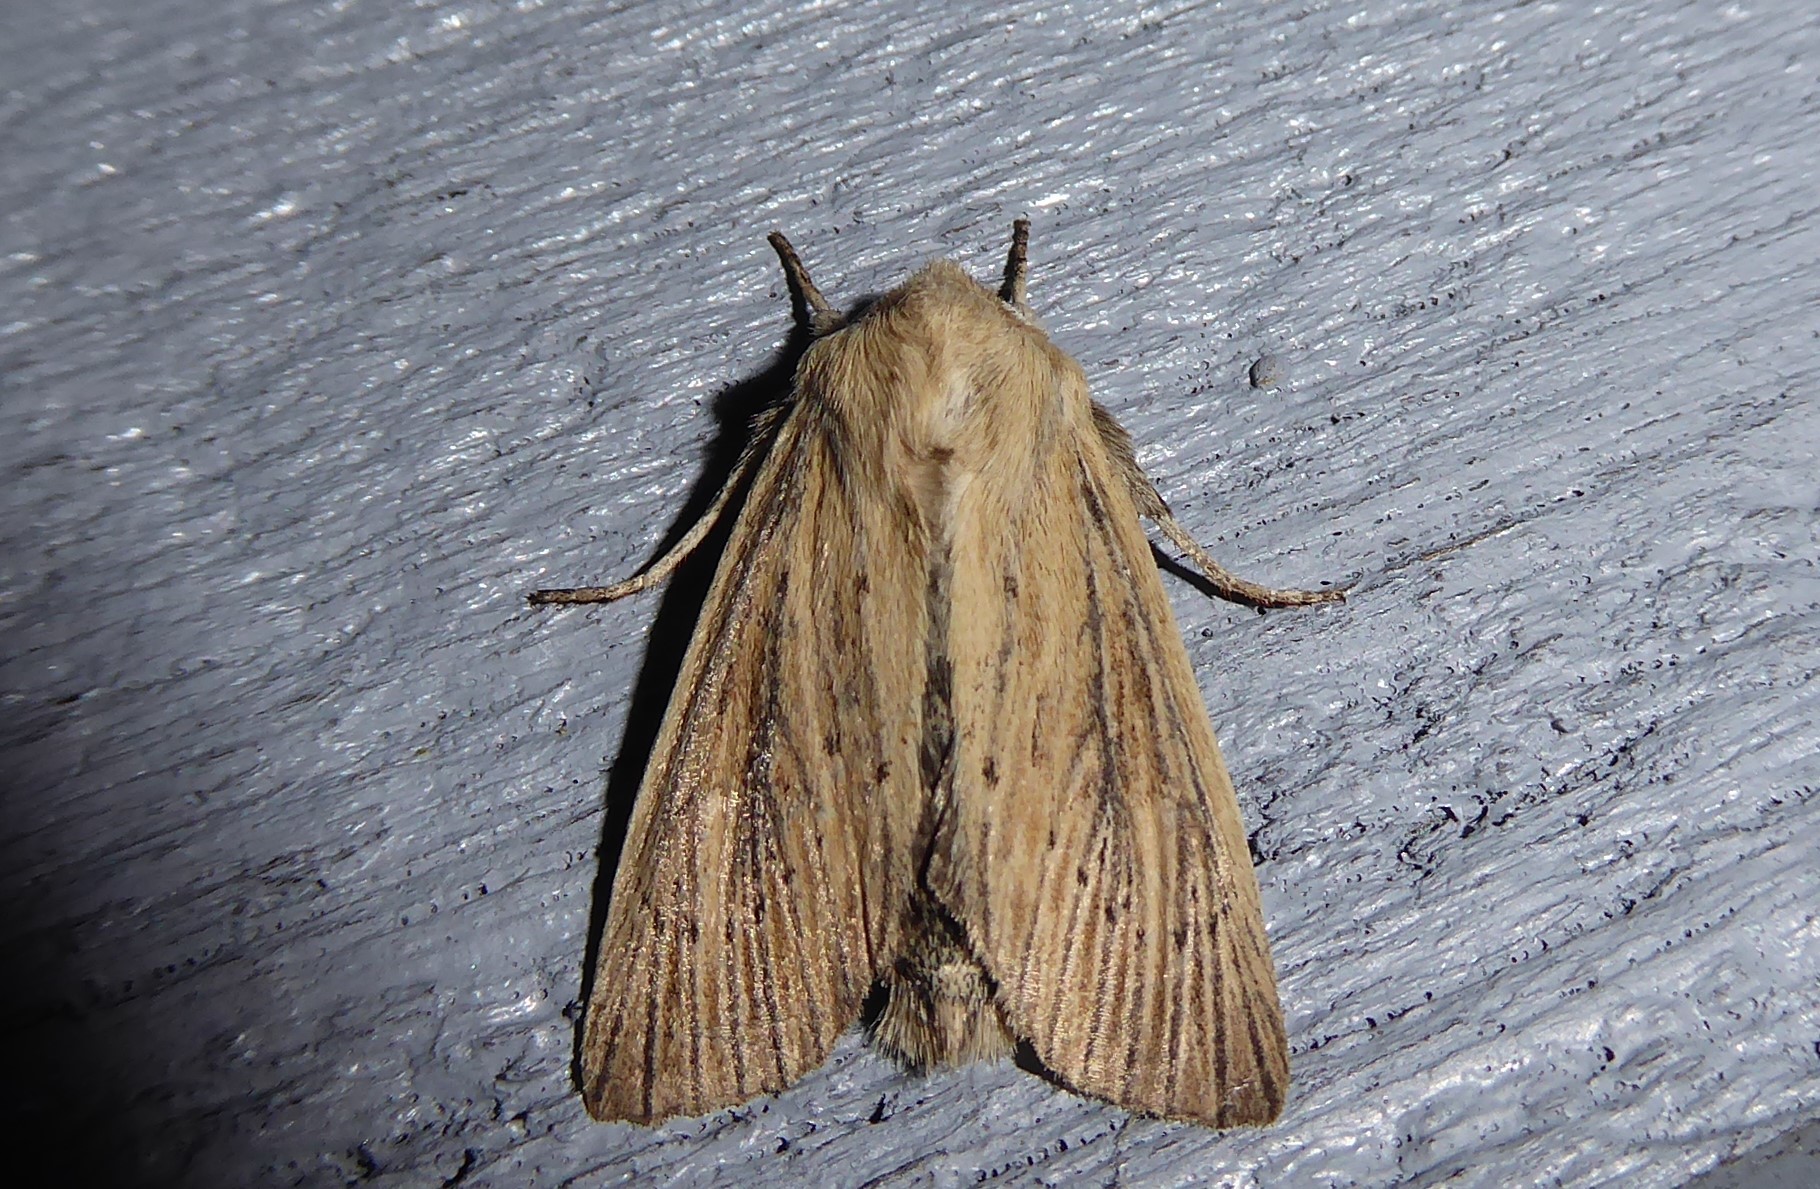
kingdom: Animalia
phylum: Arthropoda
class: Insecta
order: Lepidoptera
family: Noctuidae
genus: Ichneutica
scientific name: Ichneutica arotis
